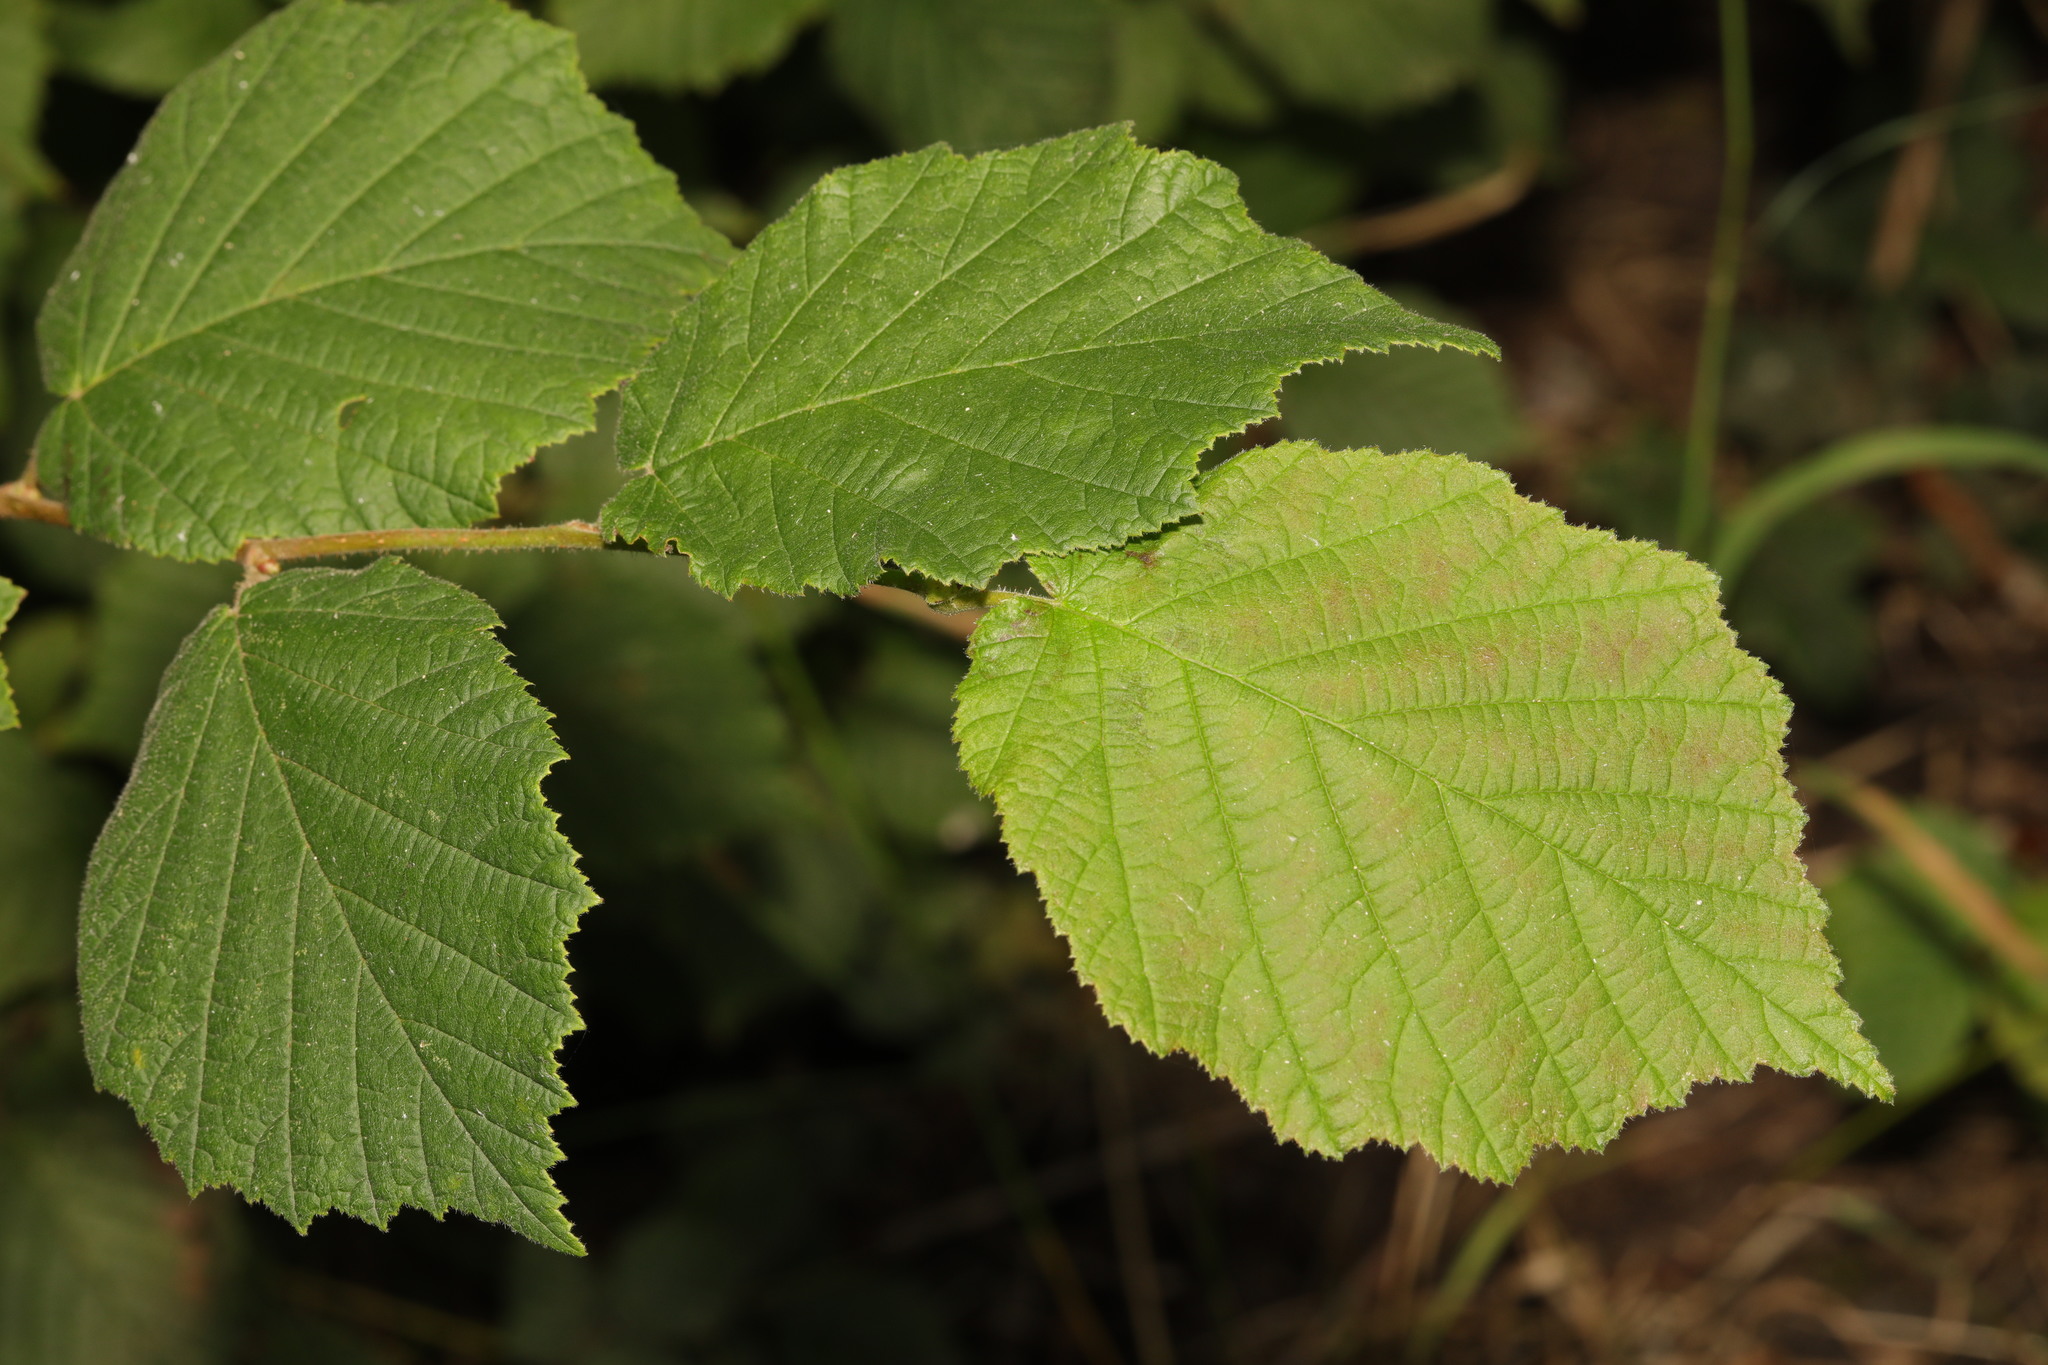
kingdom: Plantae
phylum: Tracheophyta
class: Magnoliopsida
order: Fagales
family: Betulaceae
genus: Corylus
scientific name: Corylus avellana
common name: European hazel
